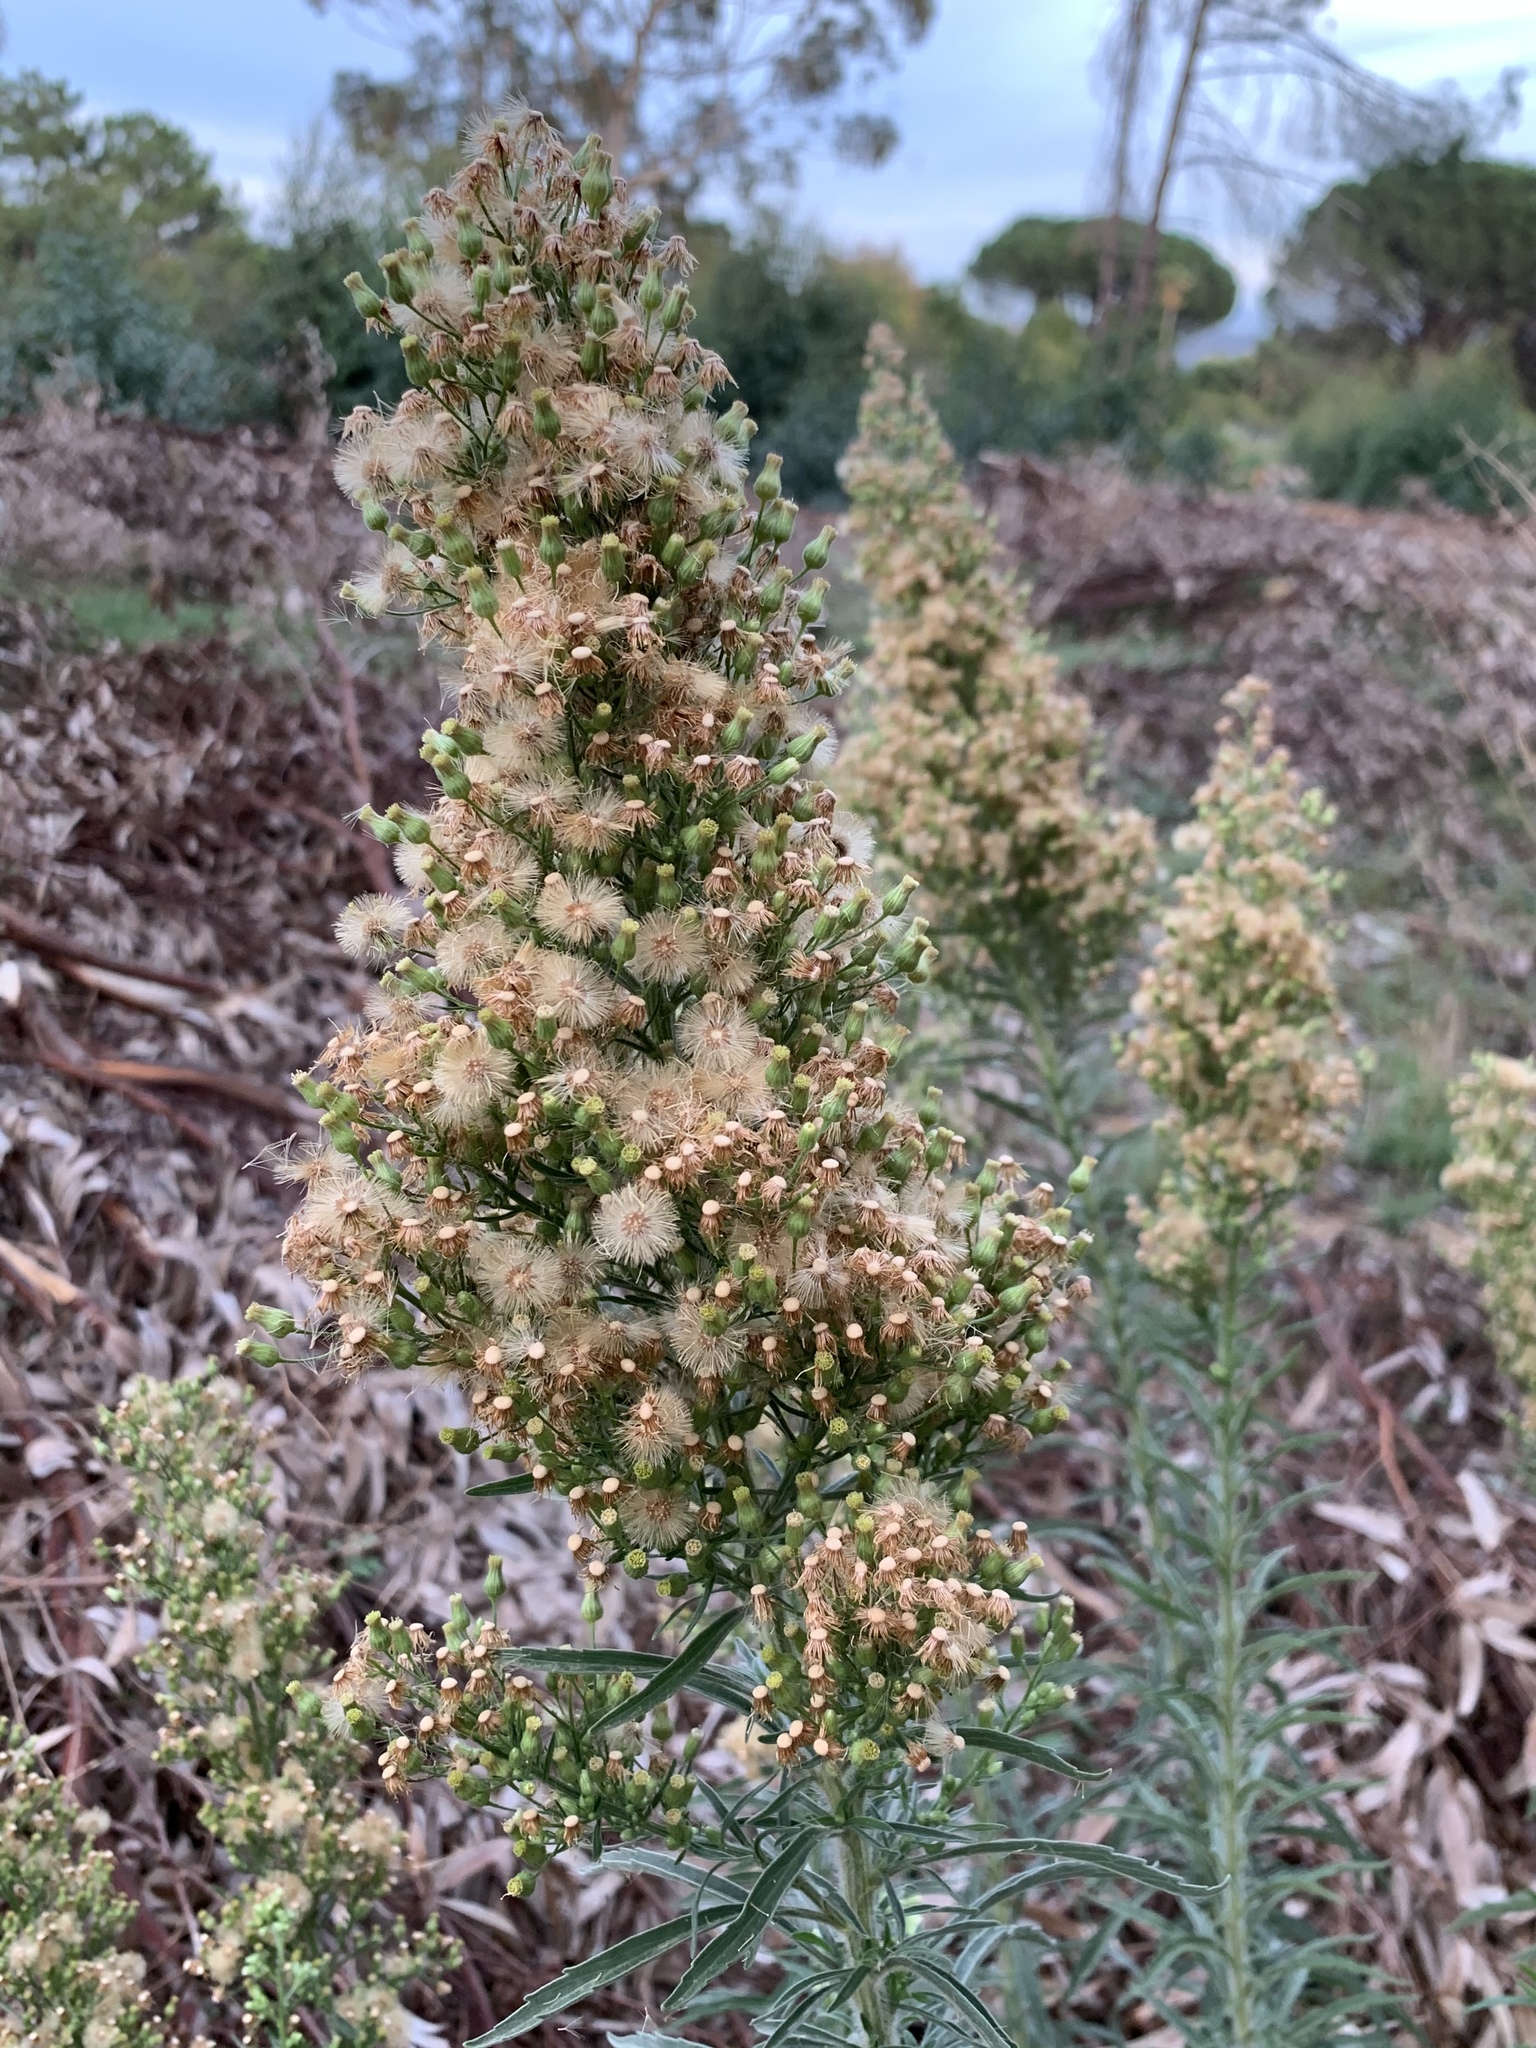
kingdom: Plantae
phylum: Tracheophyta
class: Magnoliopsida
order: Asterales
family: Asteraceae
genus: Erigeron
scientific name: Erigeron sumatrensis
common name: Daisy
